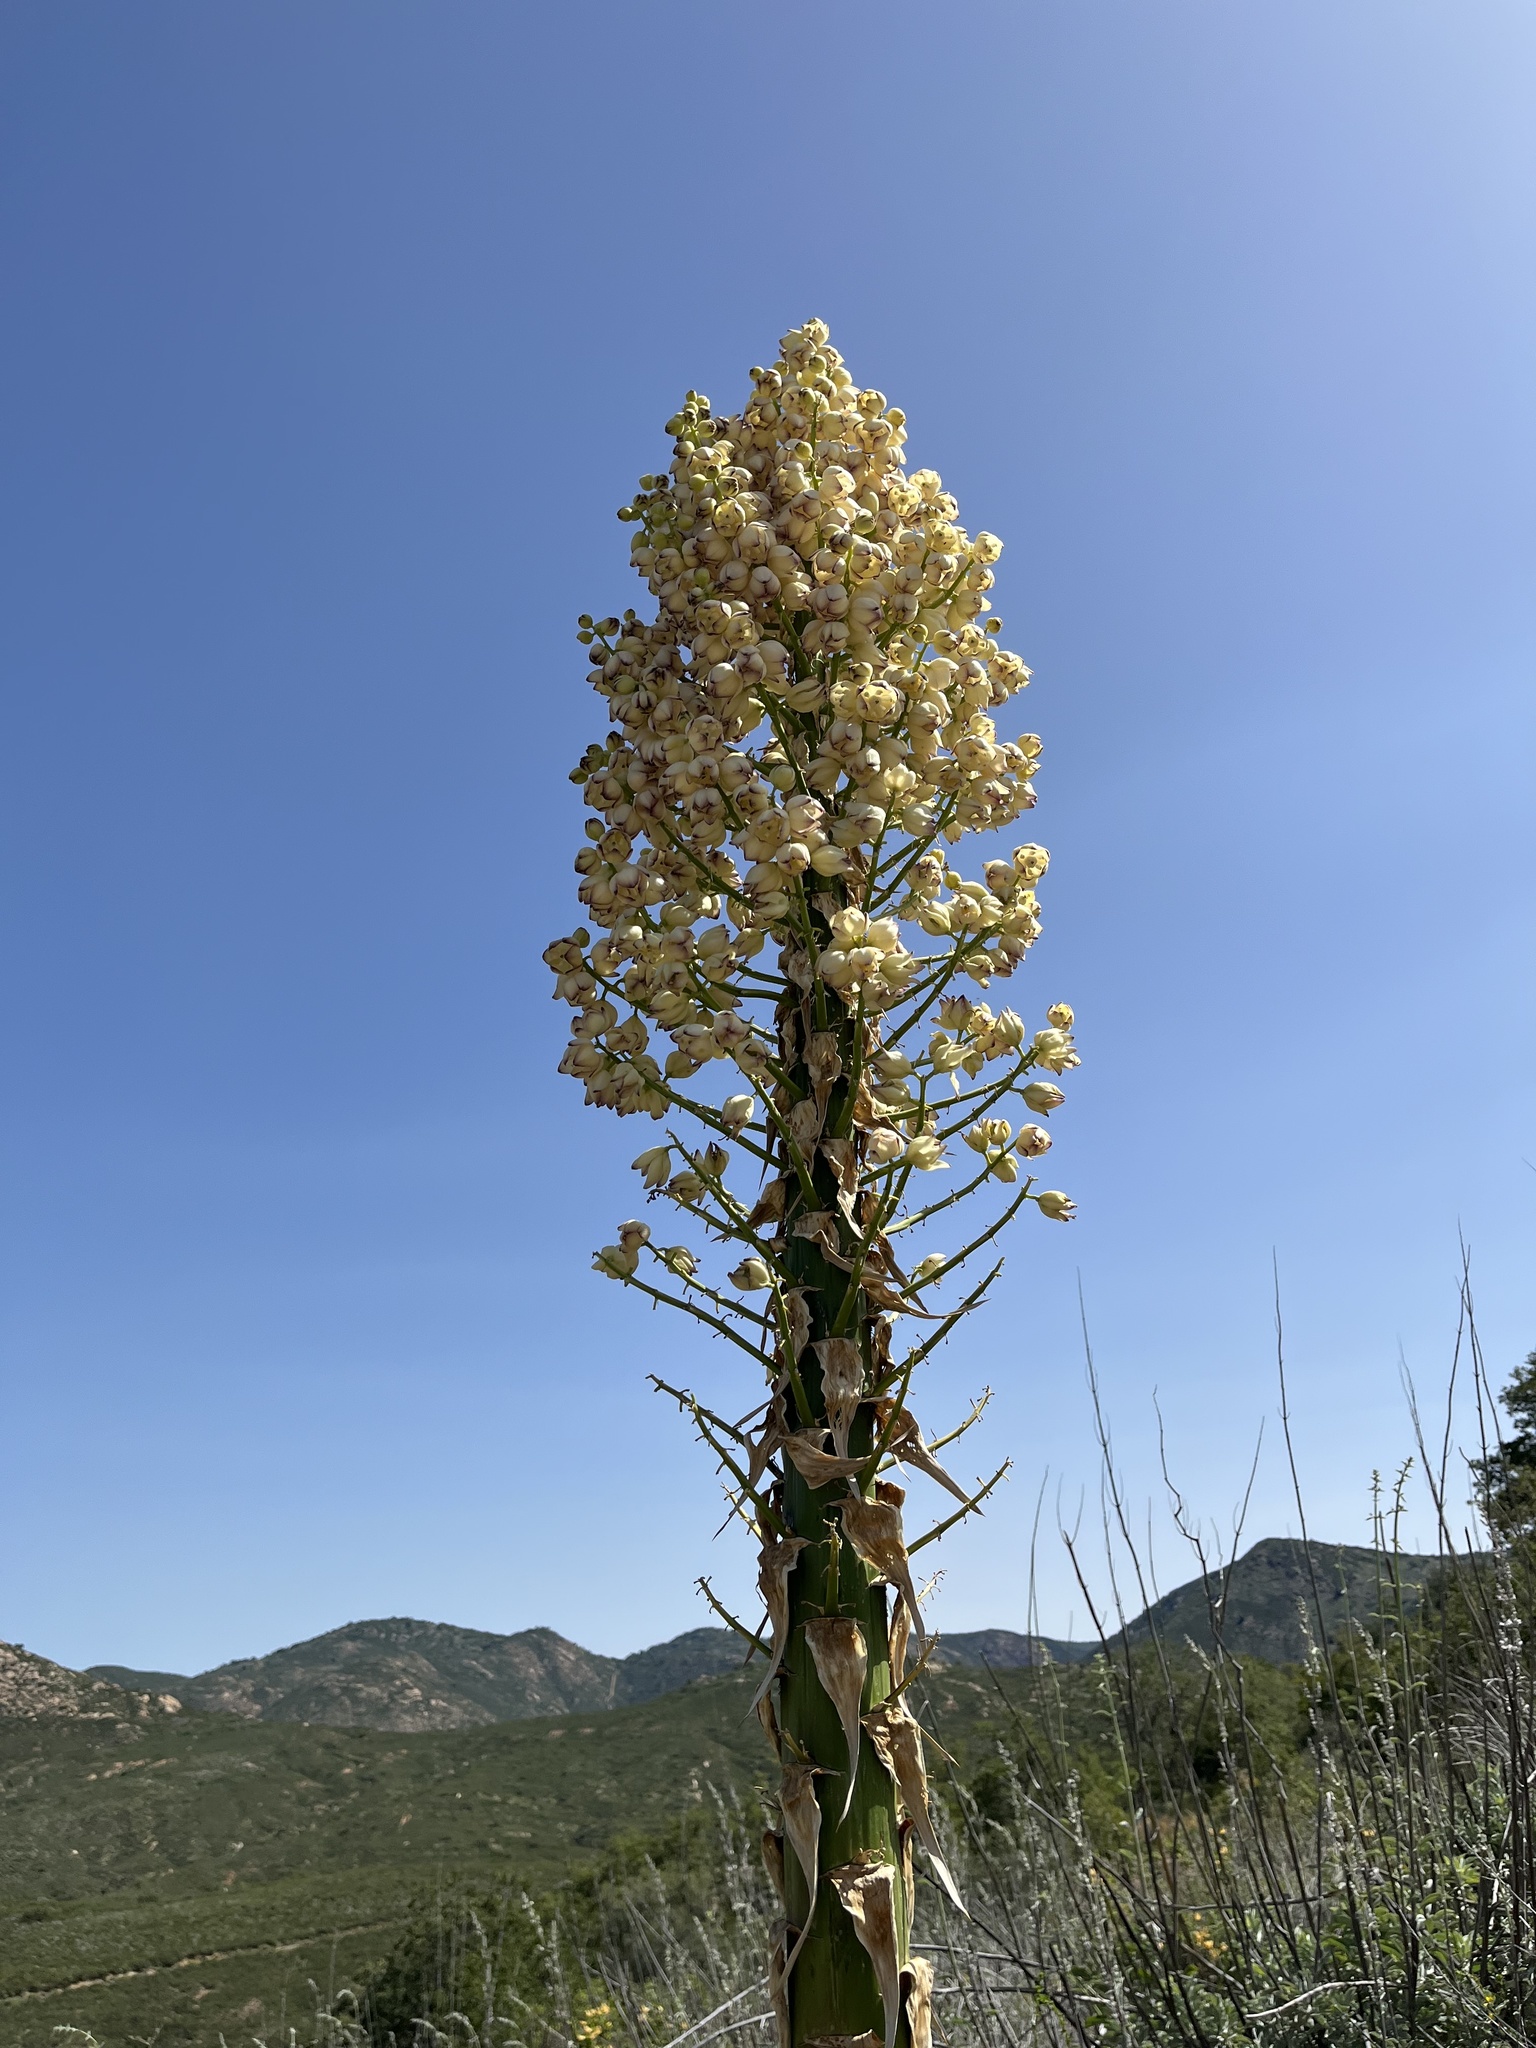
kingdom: Plantae
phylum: Tracheophyta
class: Liliopsida
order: Asparagales
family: Asparagaceae
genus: Hesperoyucca
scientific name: Hesperoyucca whipplei
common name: Our lord's-candle
